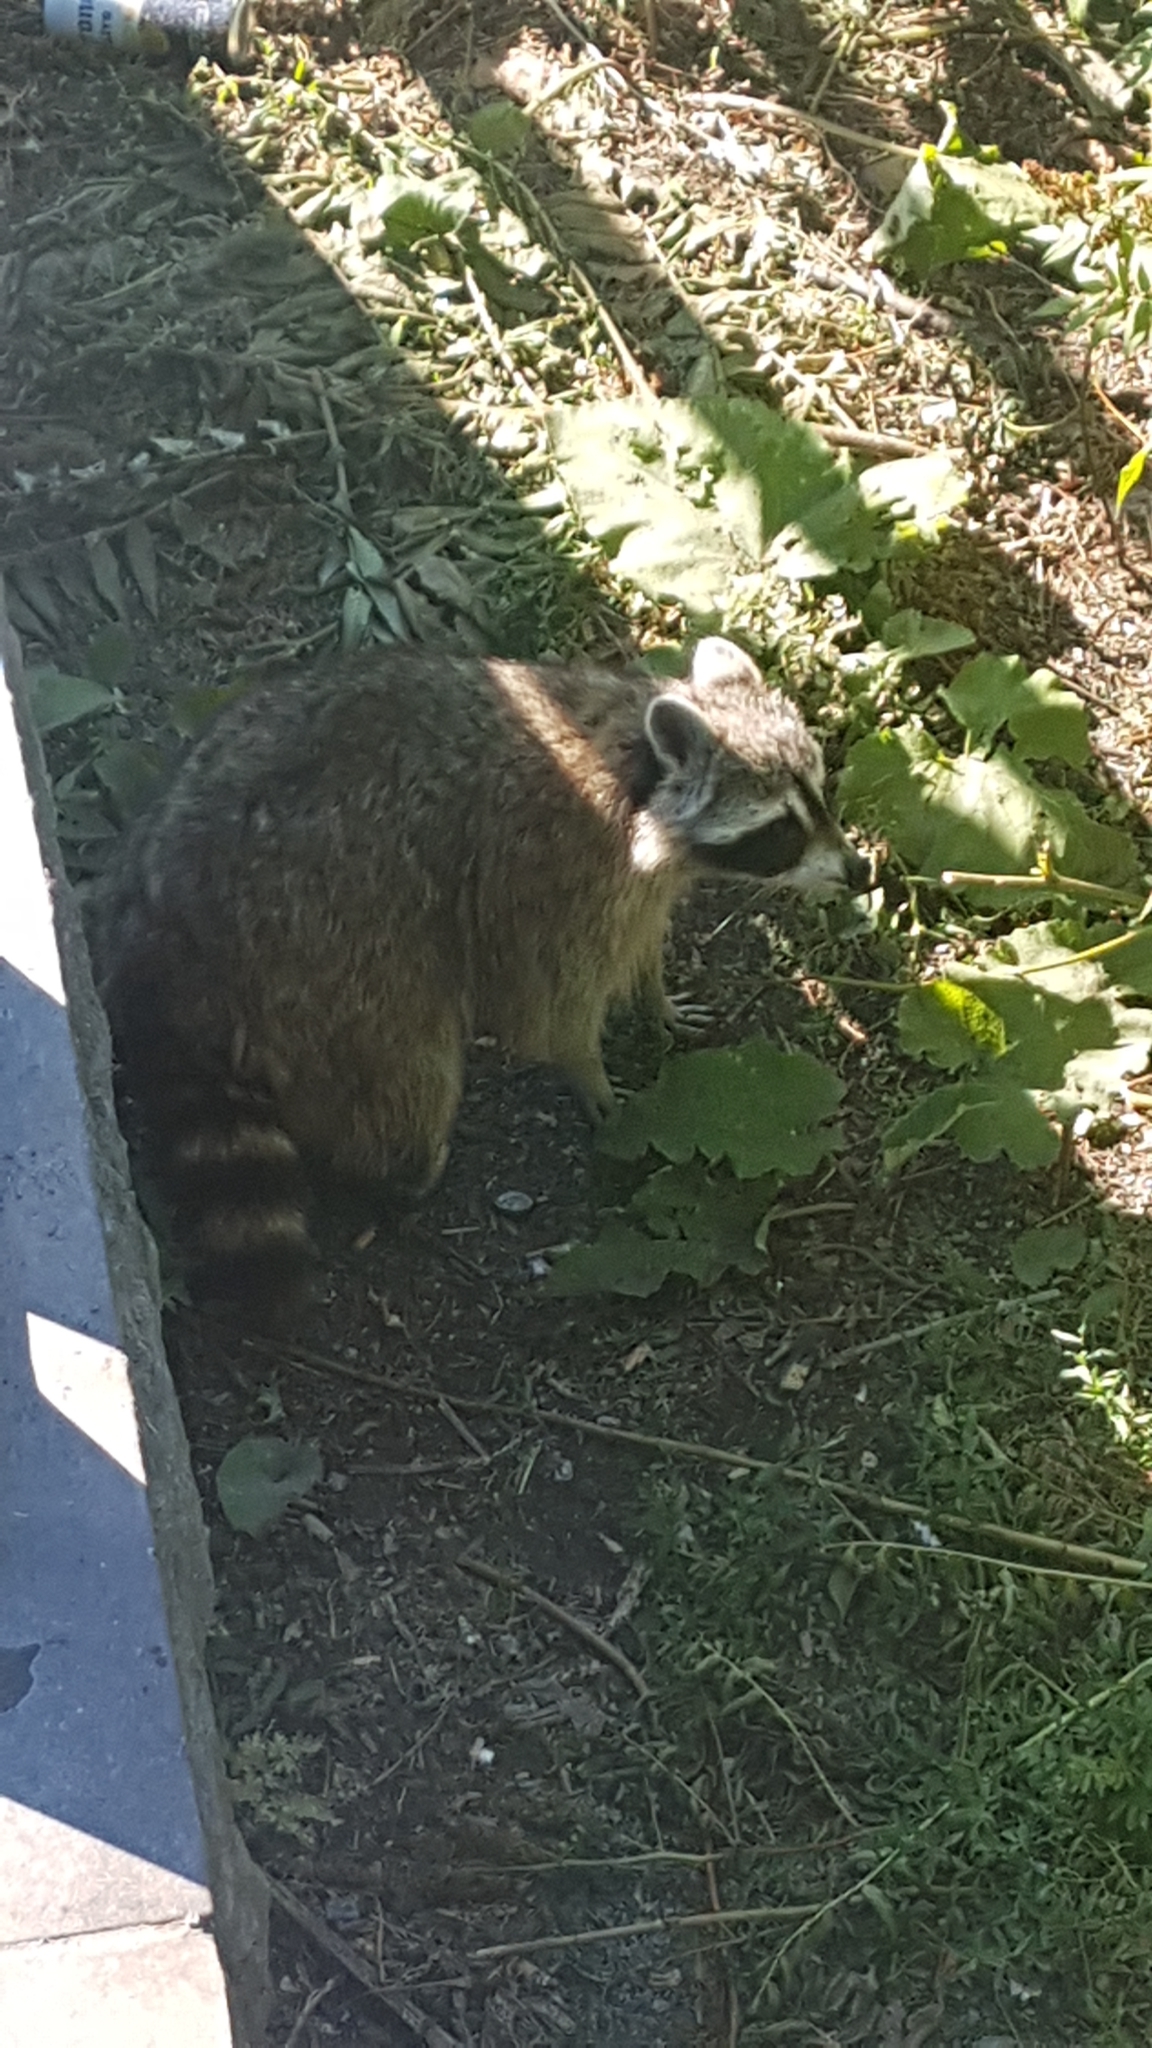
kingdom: Animalia
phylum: Chordata
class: Mammalia
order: Carnivora
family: Procyonidae
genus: Procyon
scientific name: Procyon lotor
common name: Raccoon
